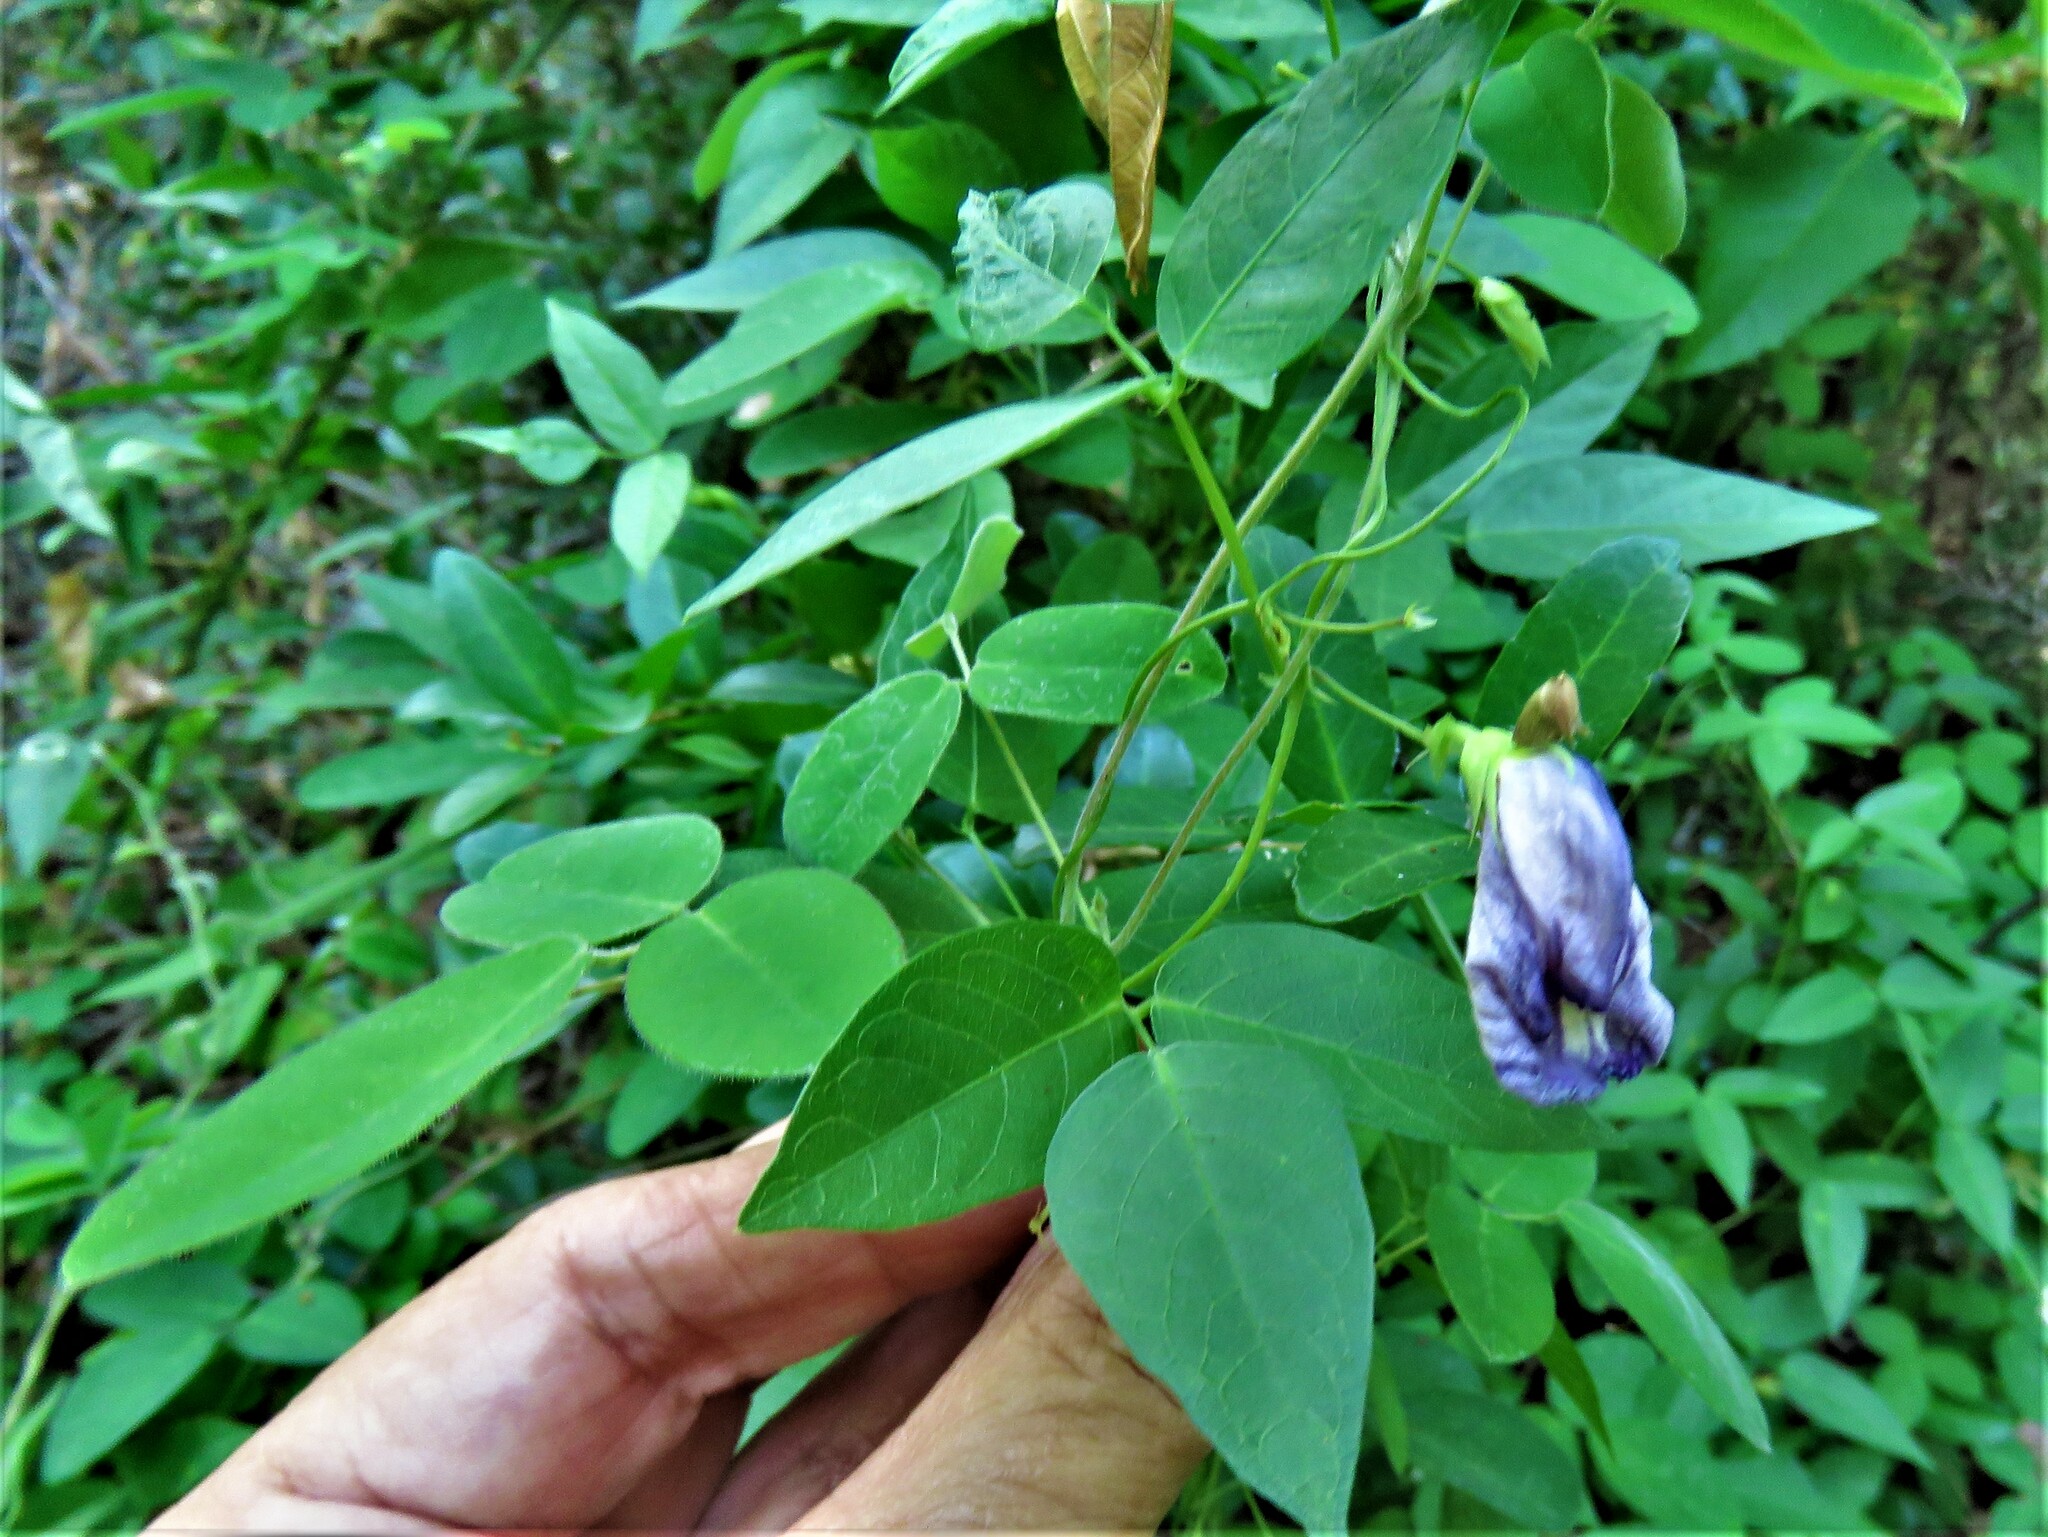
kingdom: Plantae
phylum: Tracheophyta
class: Magnoliopsida
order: Fabales
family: Fabaceae
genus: Centrosema
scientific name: Centrosema virginianum
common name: Butterfly-pea
